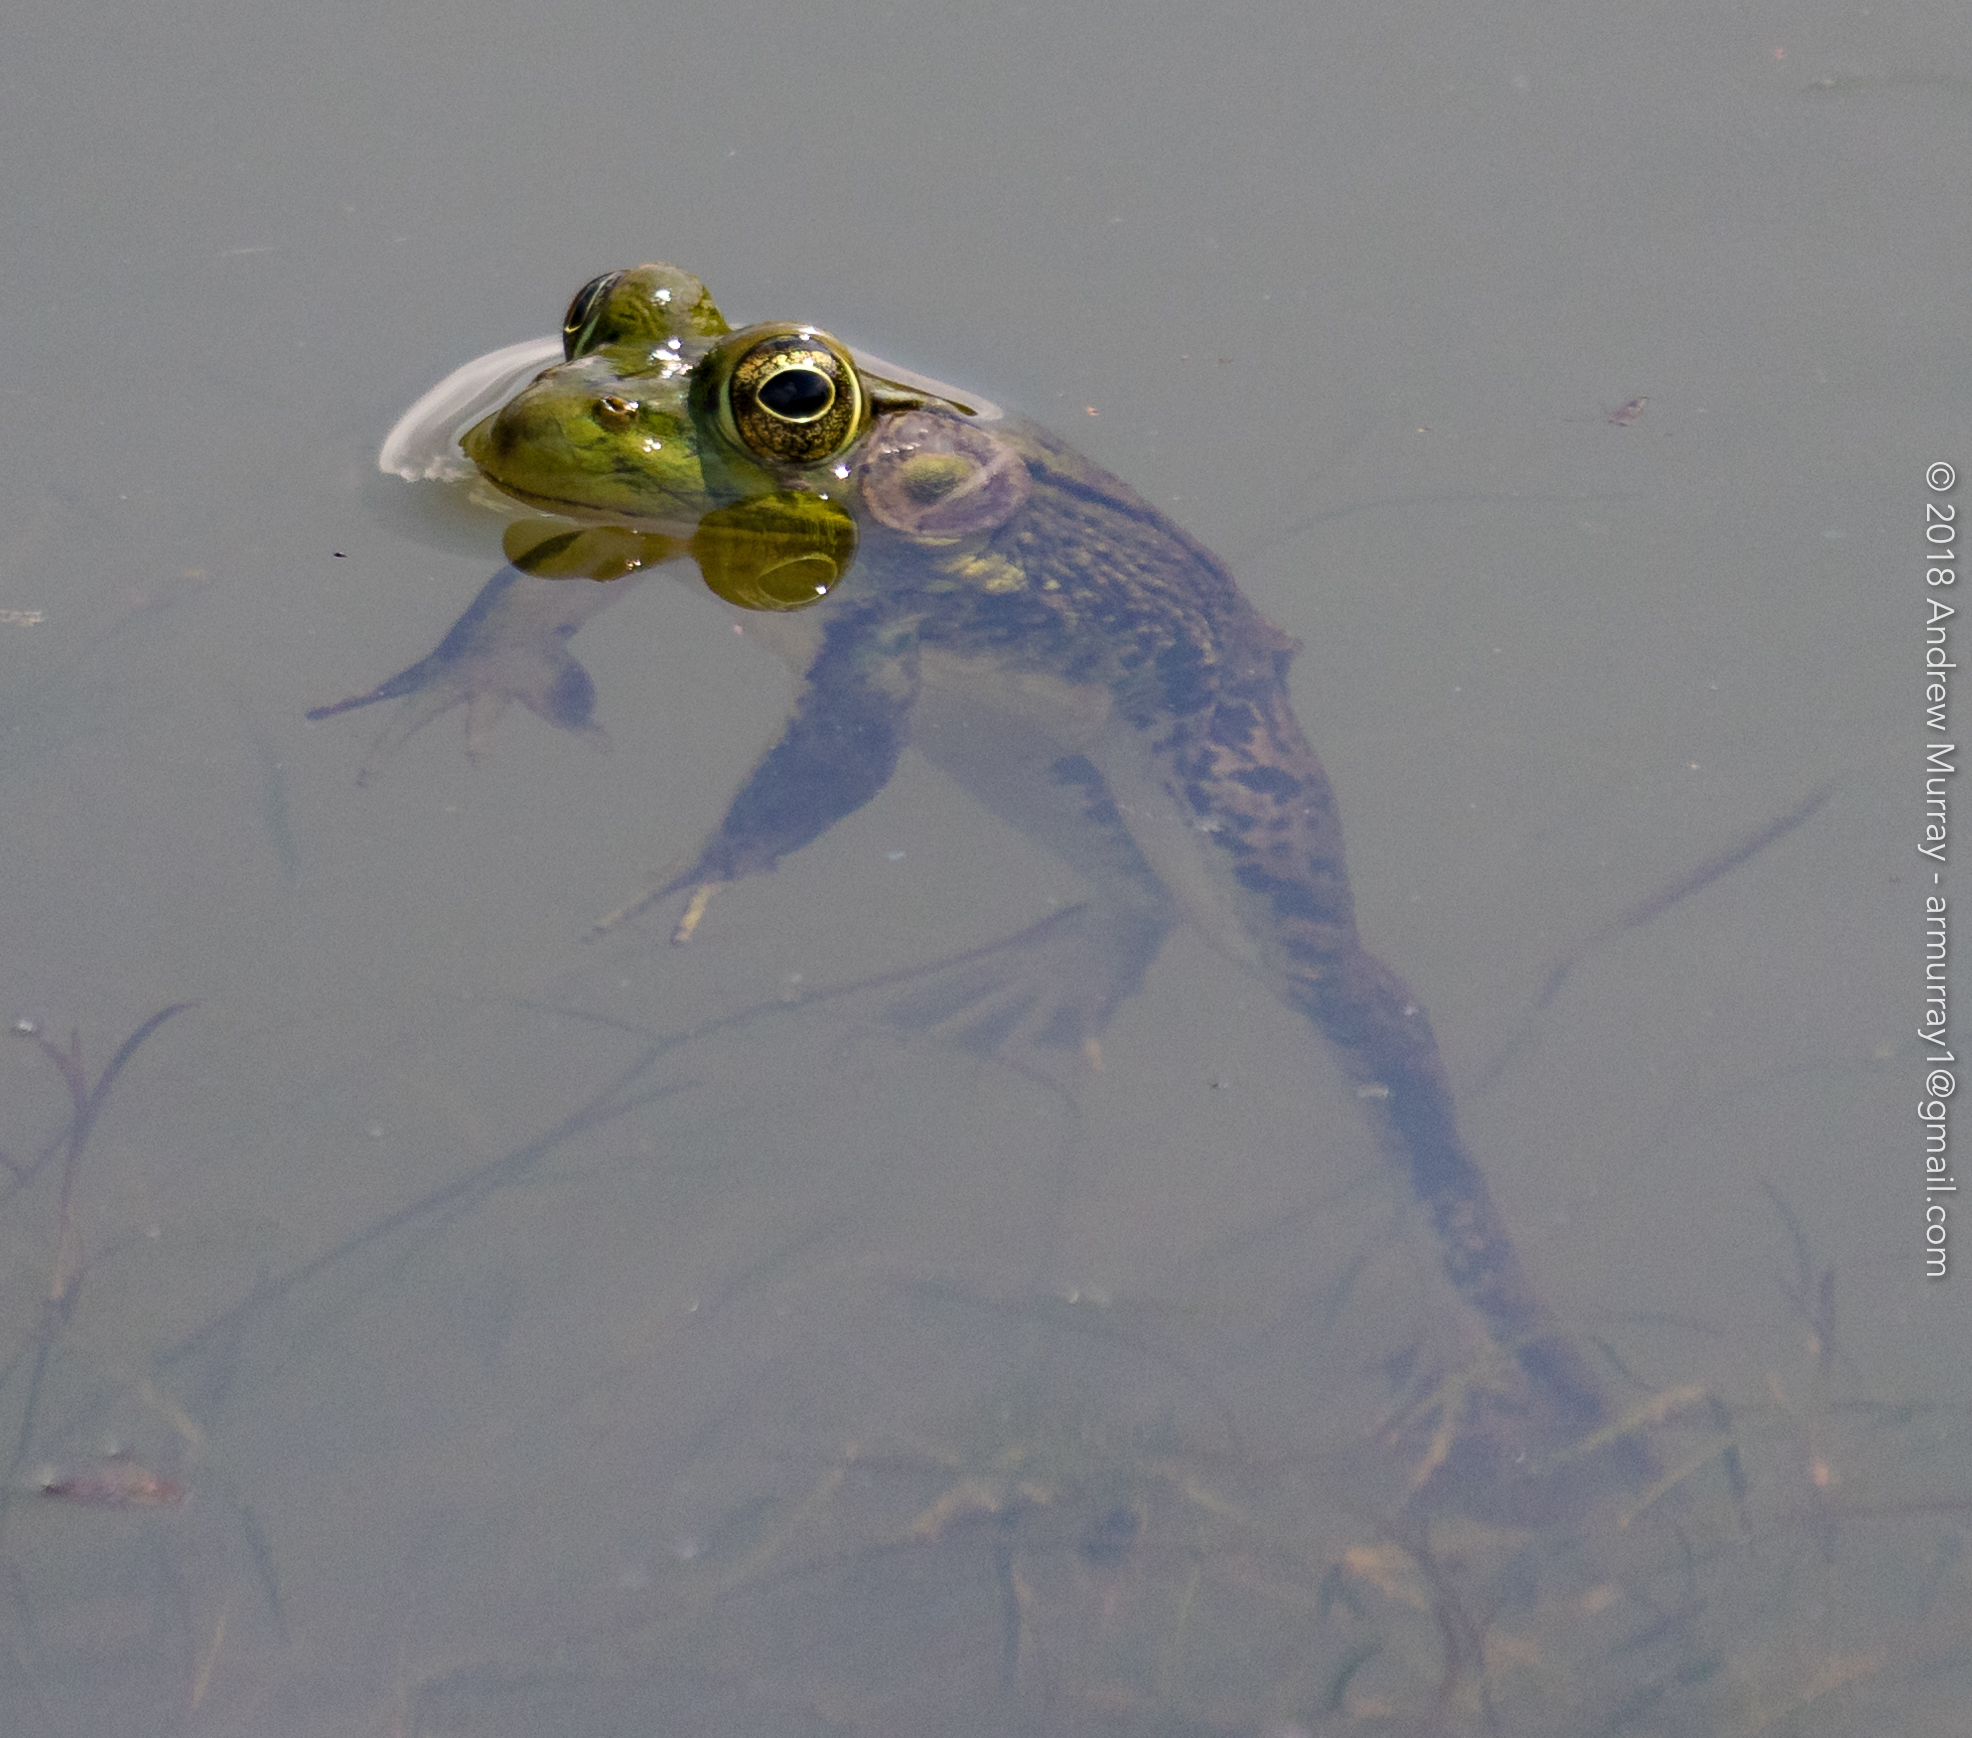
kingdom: Animalia
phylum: Chordata
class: Amphibia
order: Anura
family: Ranidae
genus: Lithobates
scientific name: Lithobates clamitans
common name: Green frog
